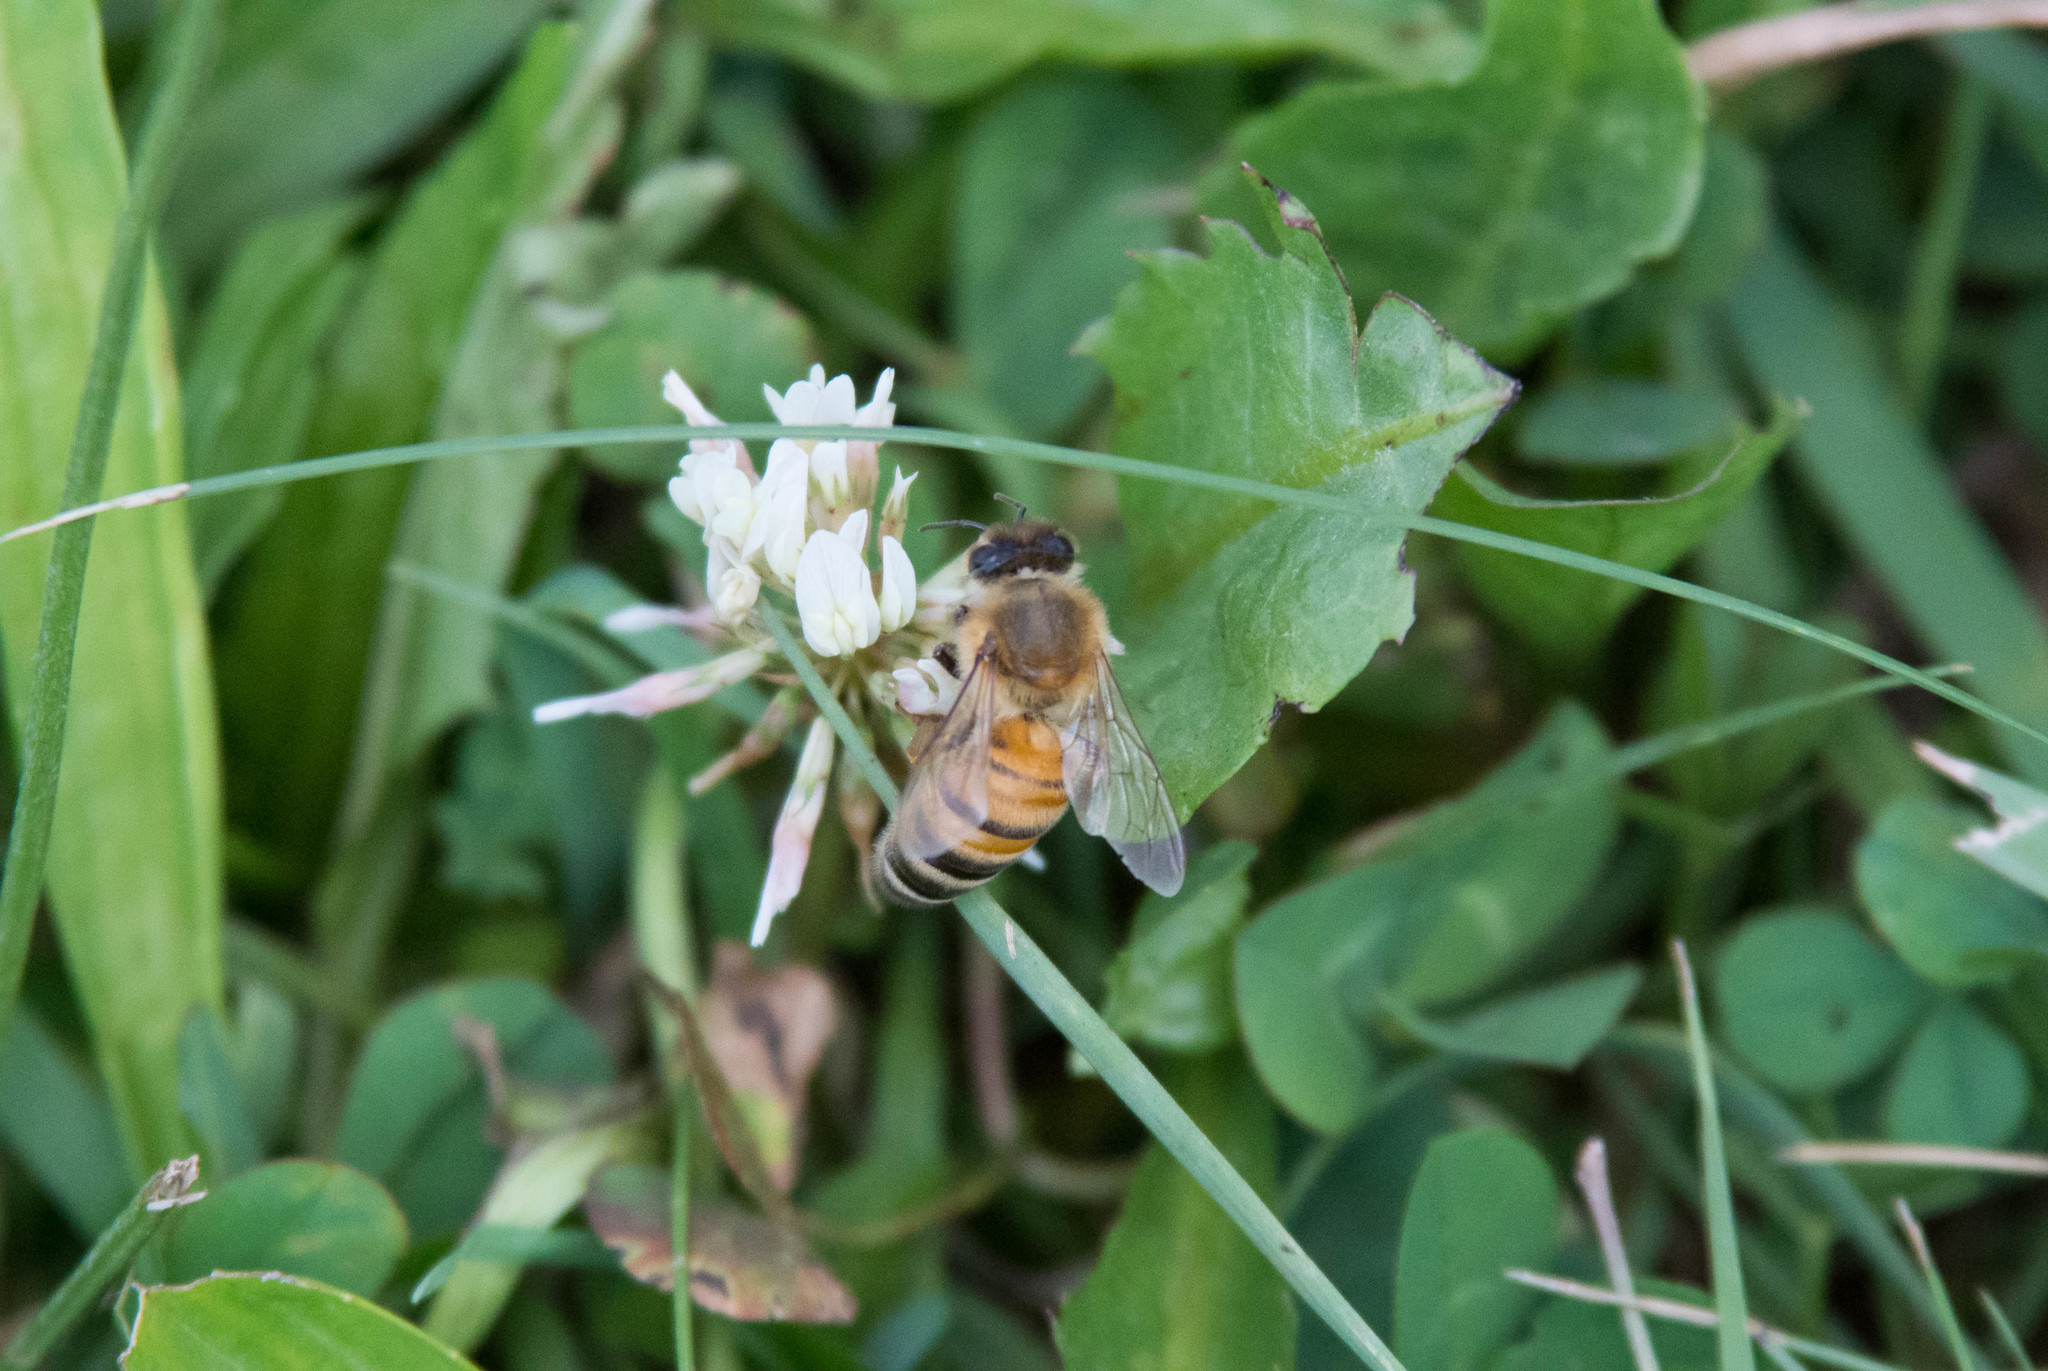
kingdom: Animalia
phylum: Arthropoda
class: Insecta
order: Hymenoptera
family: Apidae
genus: Apis
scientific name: Apis mellifera
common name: Honey bee
